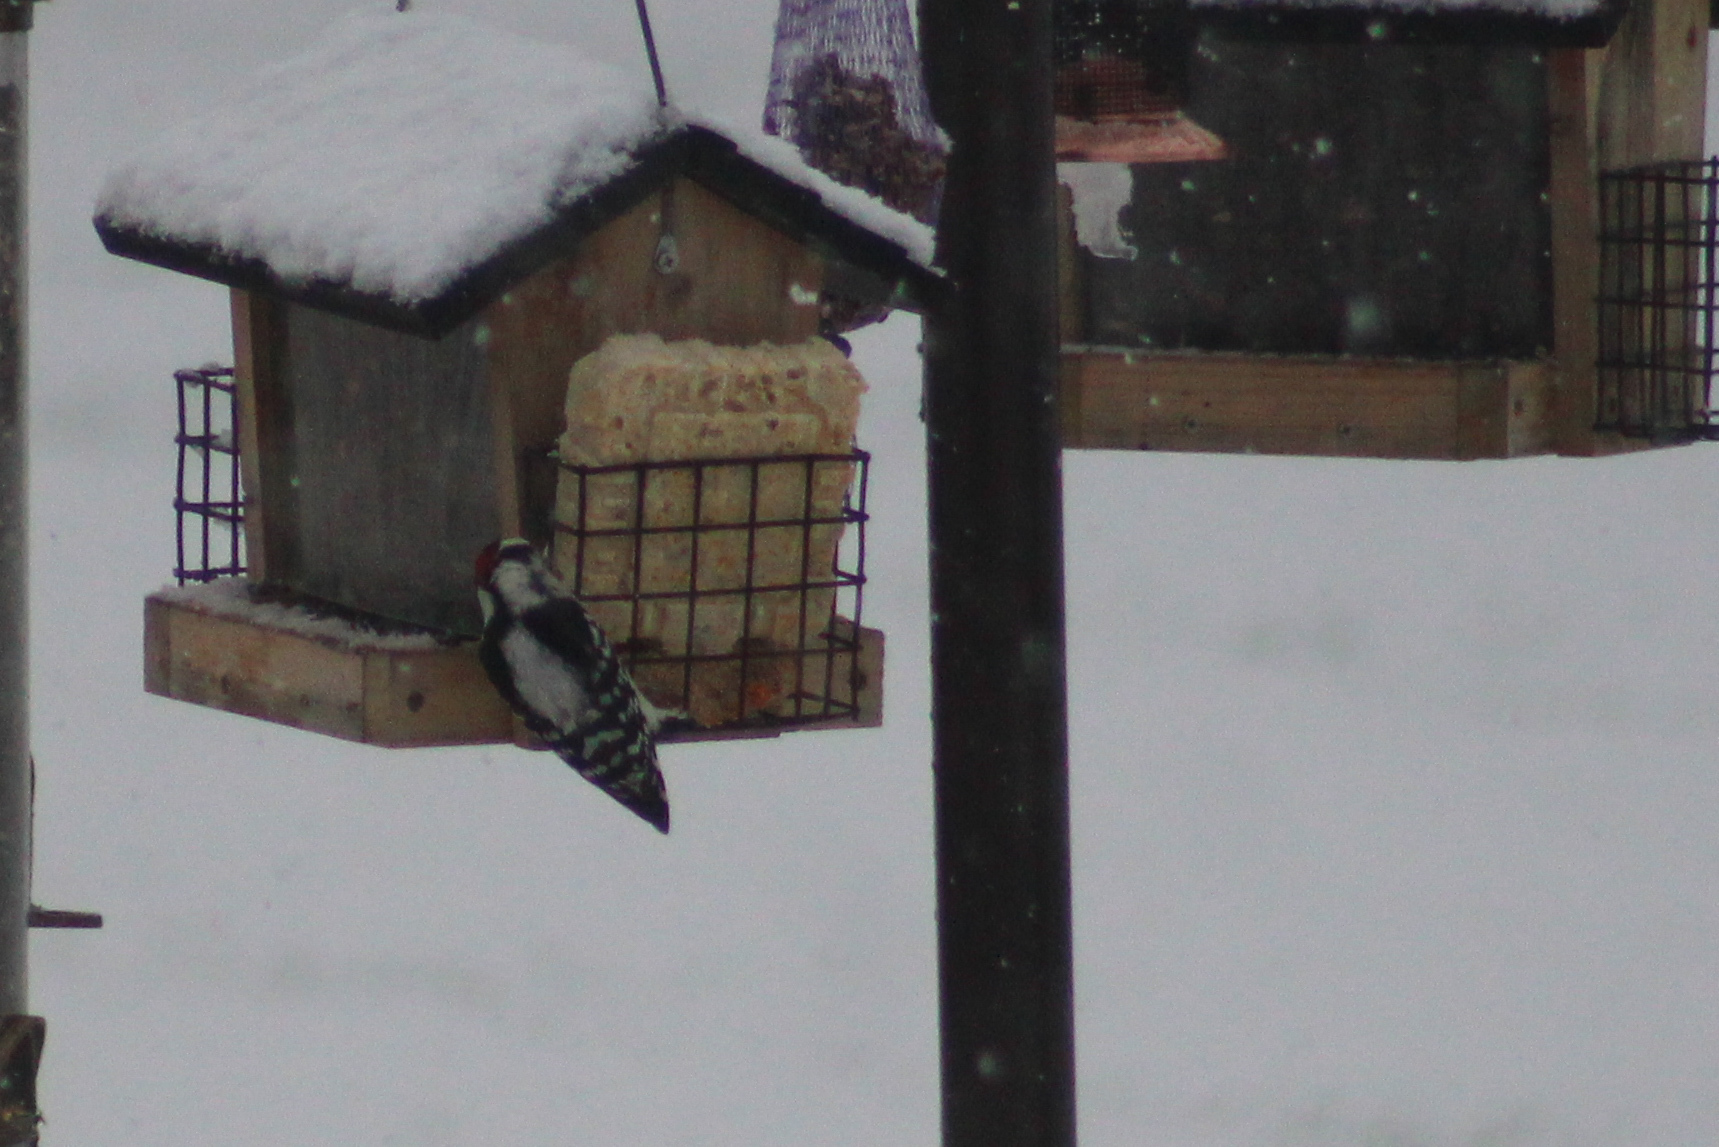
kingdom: Animalia
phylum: Chordata
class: Aves
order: Piciformes
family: Picidae
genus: Dryobates
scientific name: Dryobates pubescens
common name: Downy woodpecker
